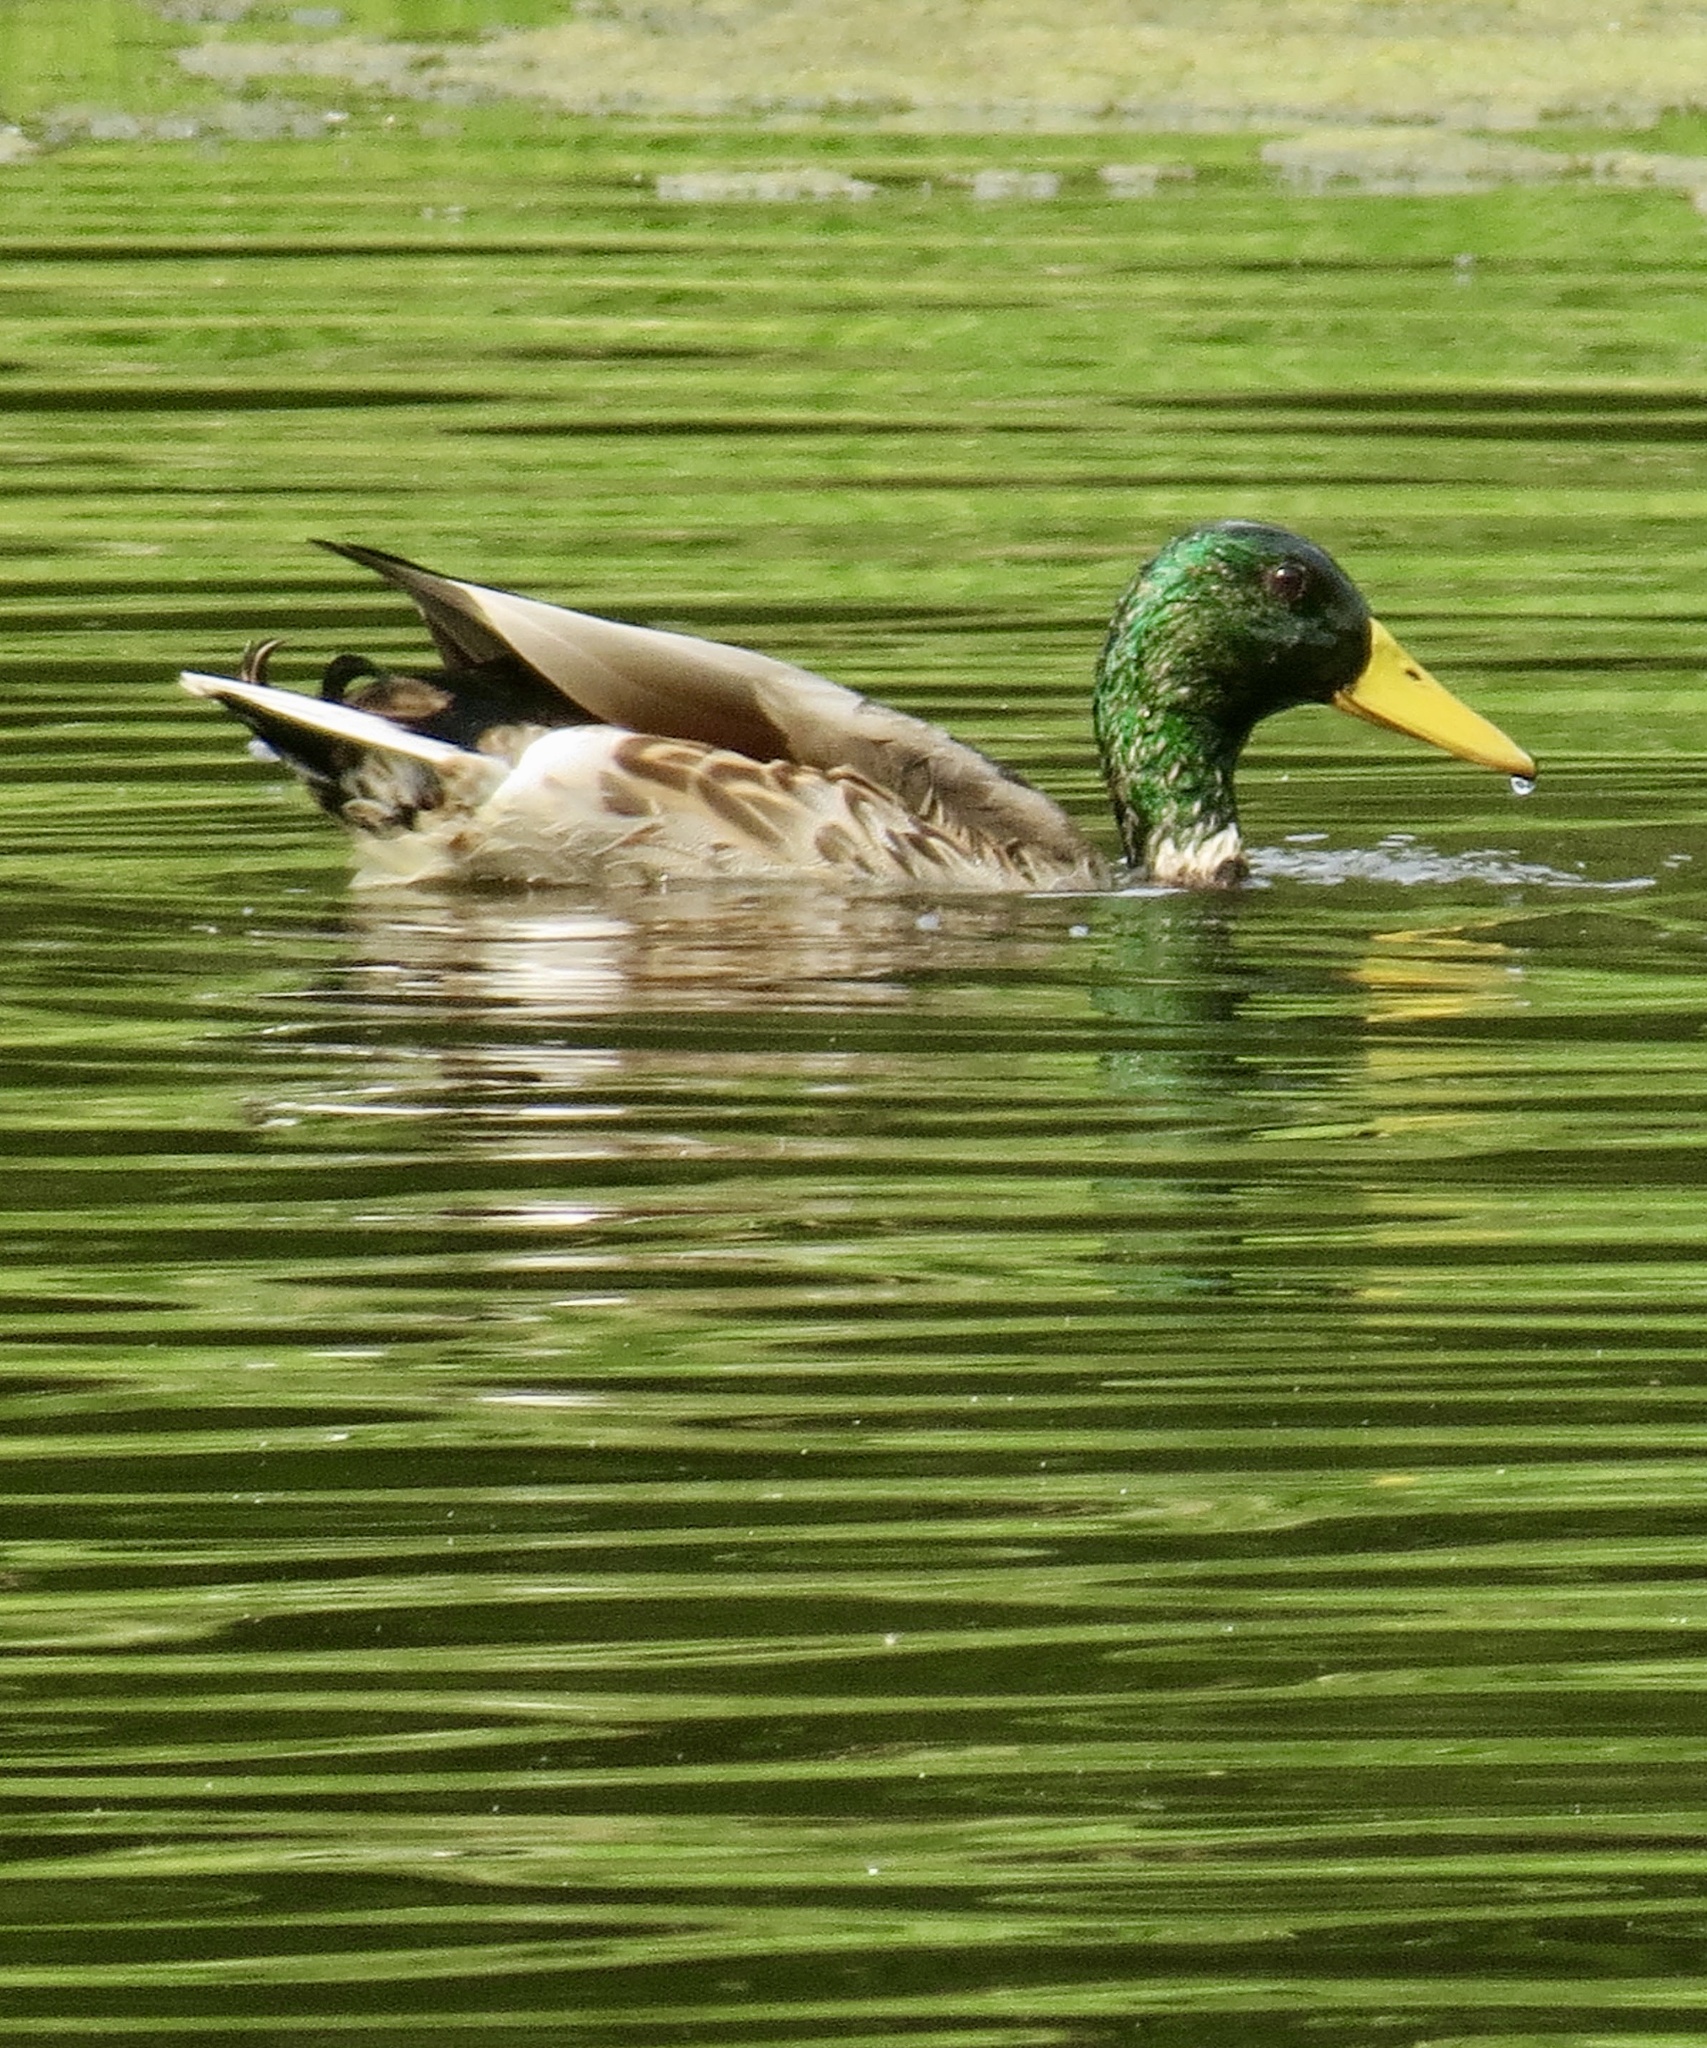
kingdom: Animalia
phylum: Chordata
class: Aves
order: Anseriformes
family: Anatidae
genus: Anas
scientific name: Anas platyrhynchos
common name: Mallard
